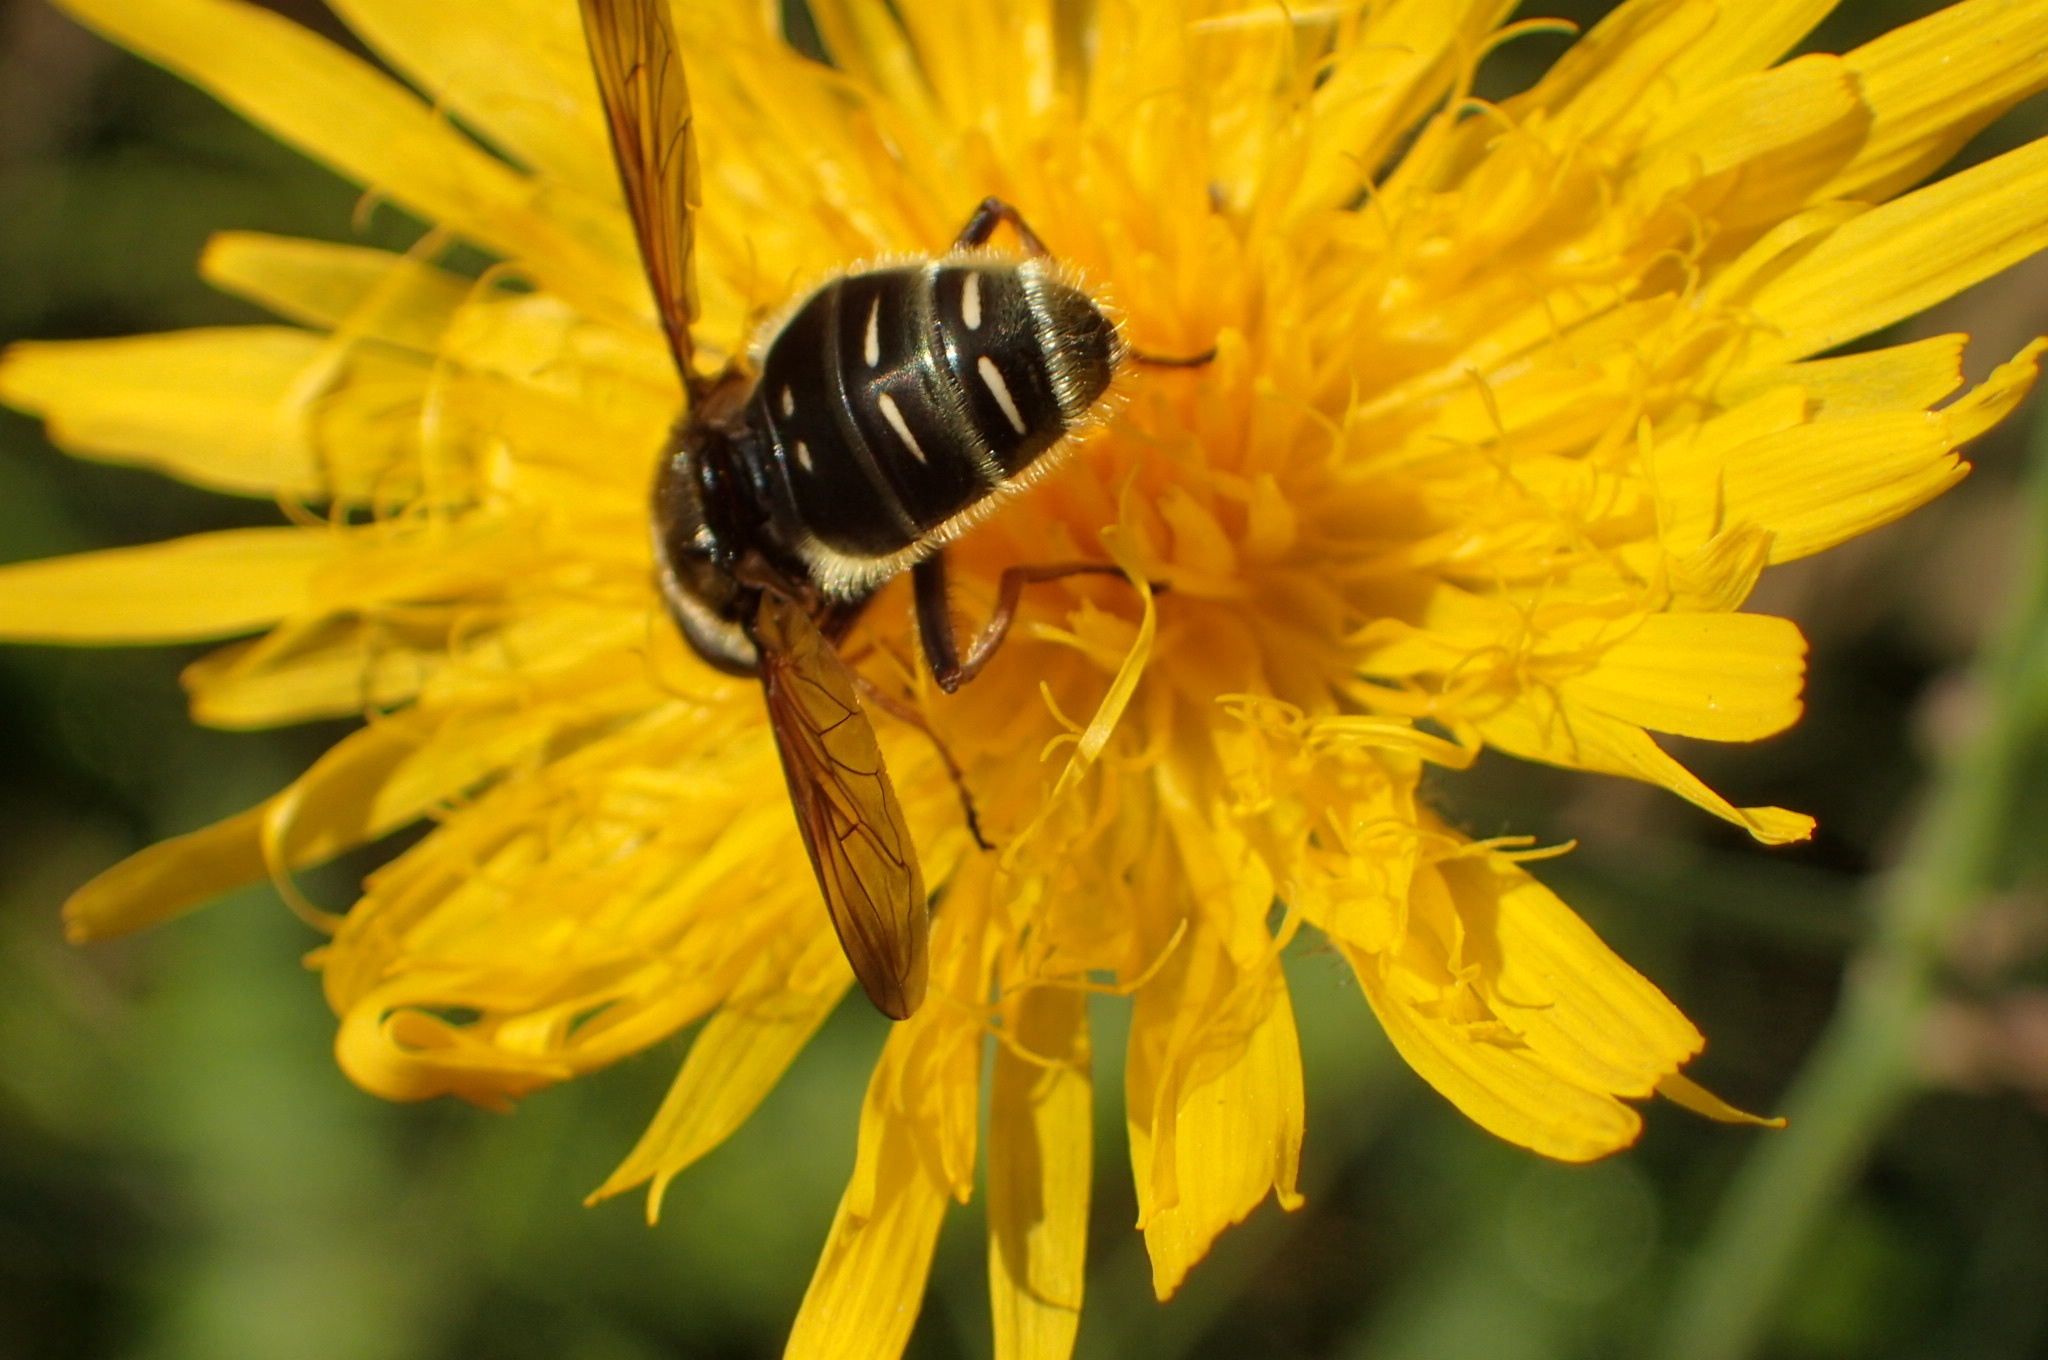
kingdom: Animalia
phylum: Arthropoda
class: Insecta
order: Diptera
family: Syrphidae
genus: Sericomyia
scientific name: Sericomyia militaris
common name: Narrow-banded pond fly
